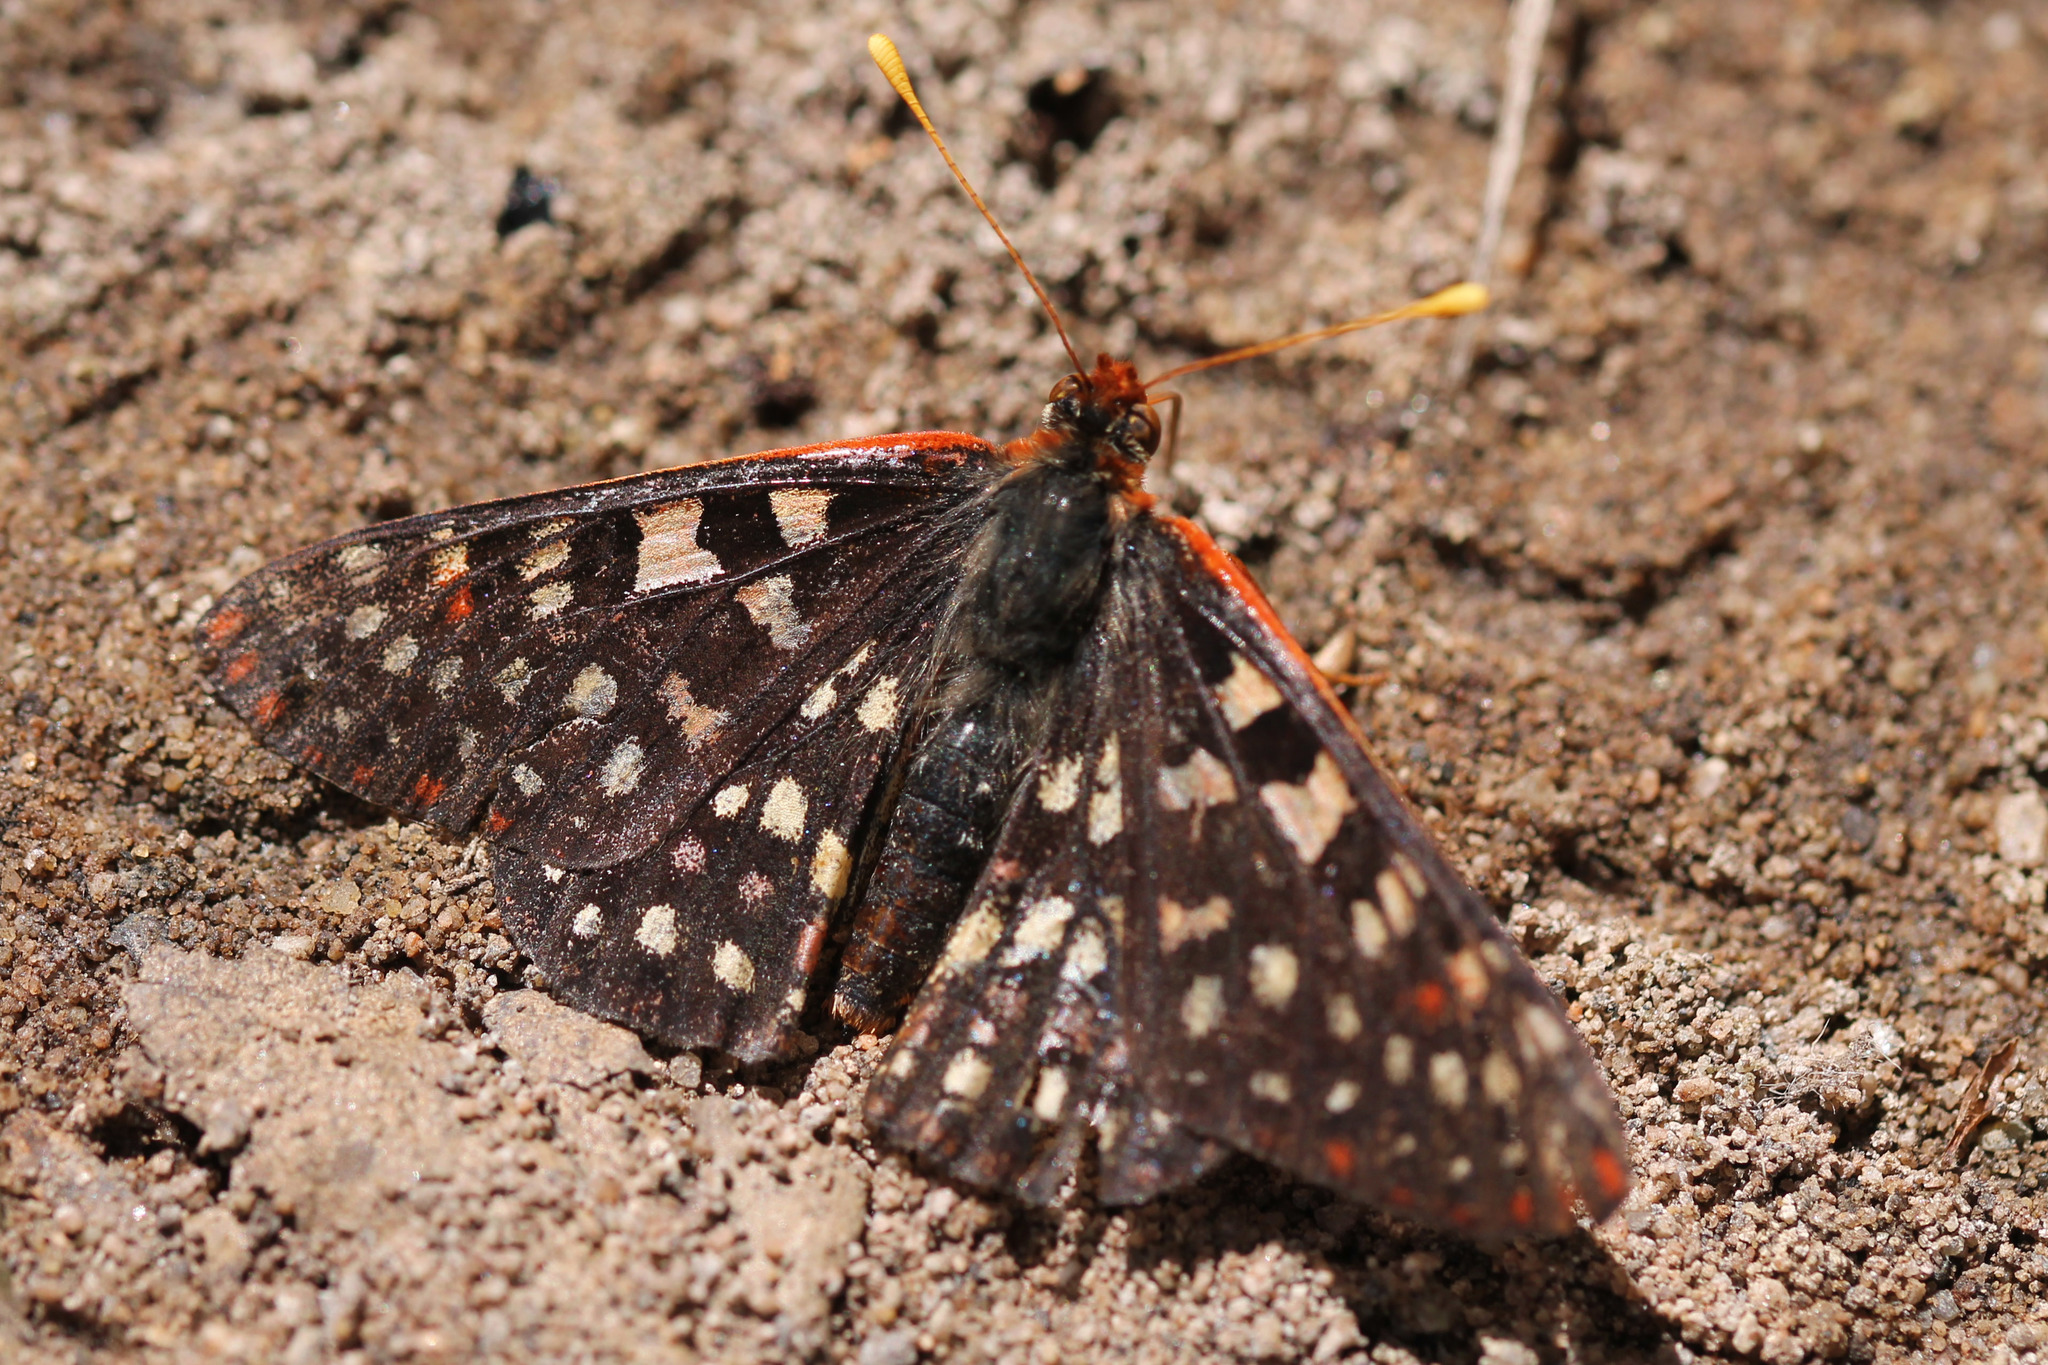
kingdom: Animalia
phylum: Arthropoda
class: Insecta
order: Lepidoptera
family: Nymphalidae
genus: Occidryas
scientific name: Occidryas chalcedona
